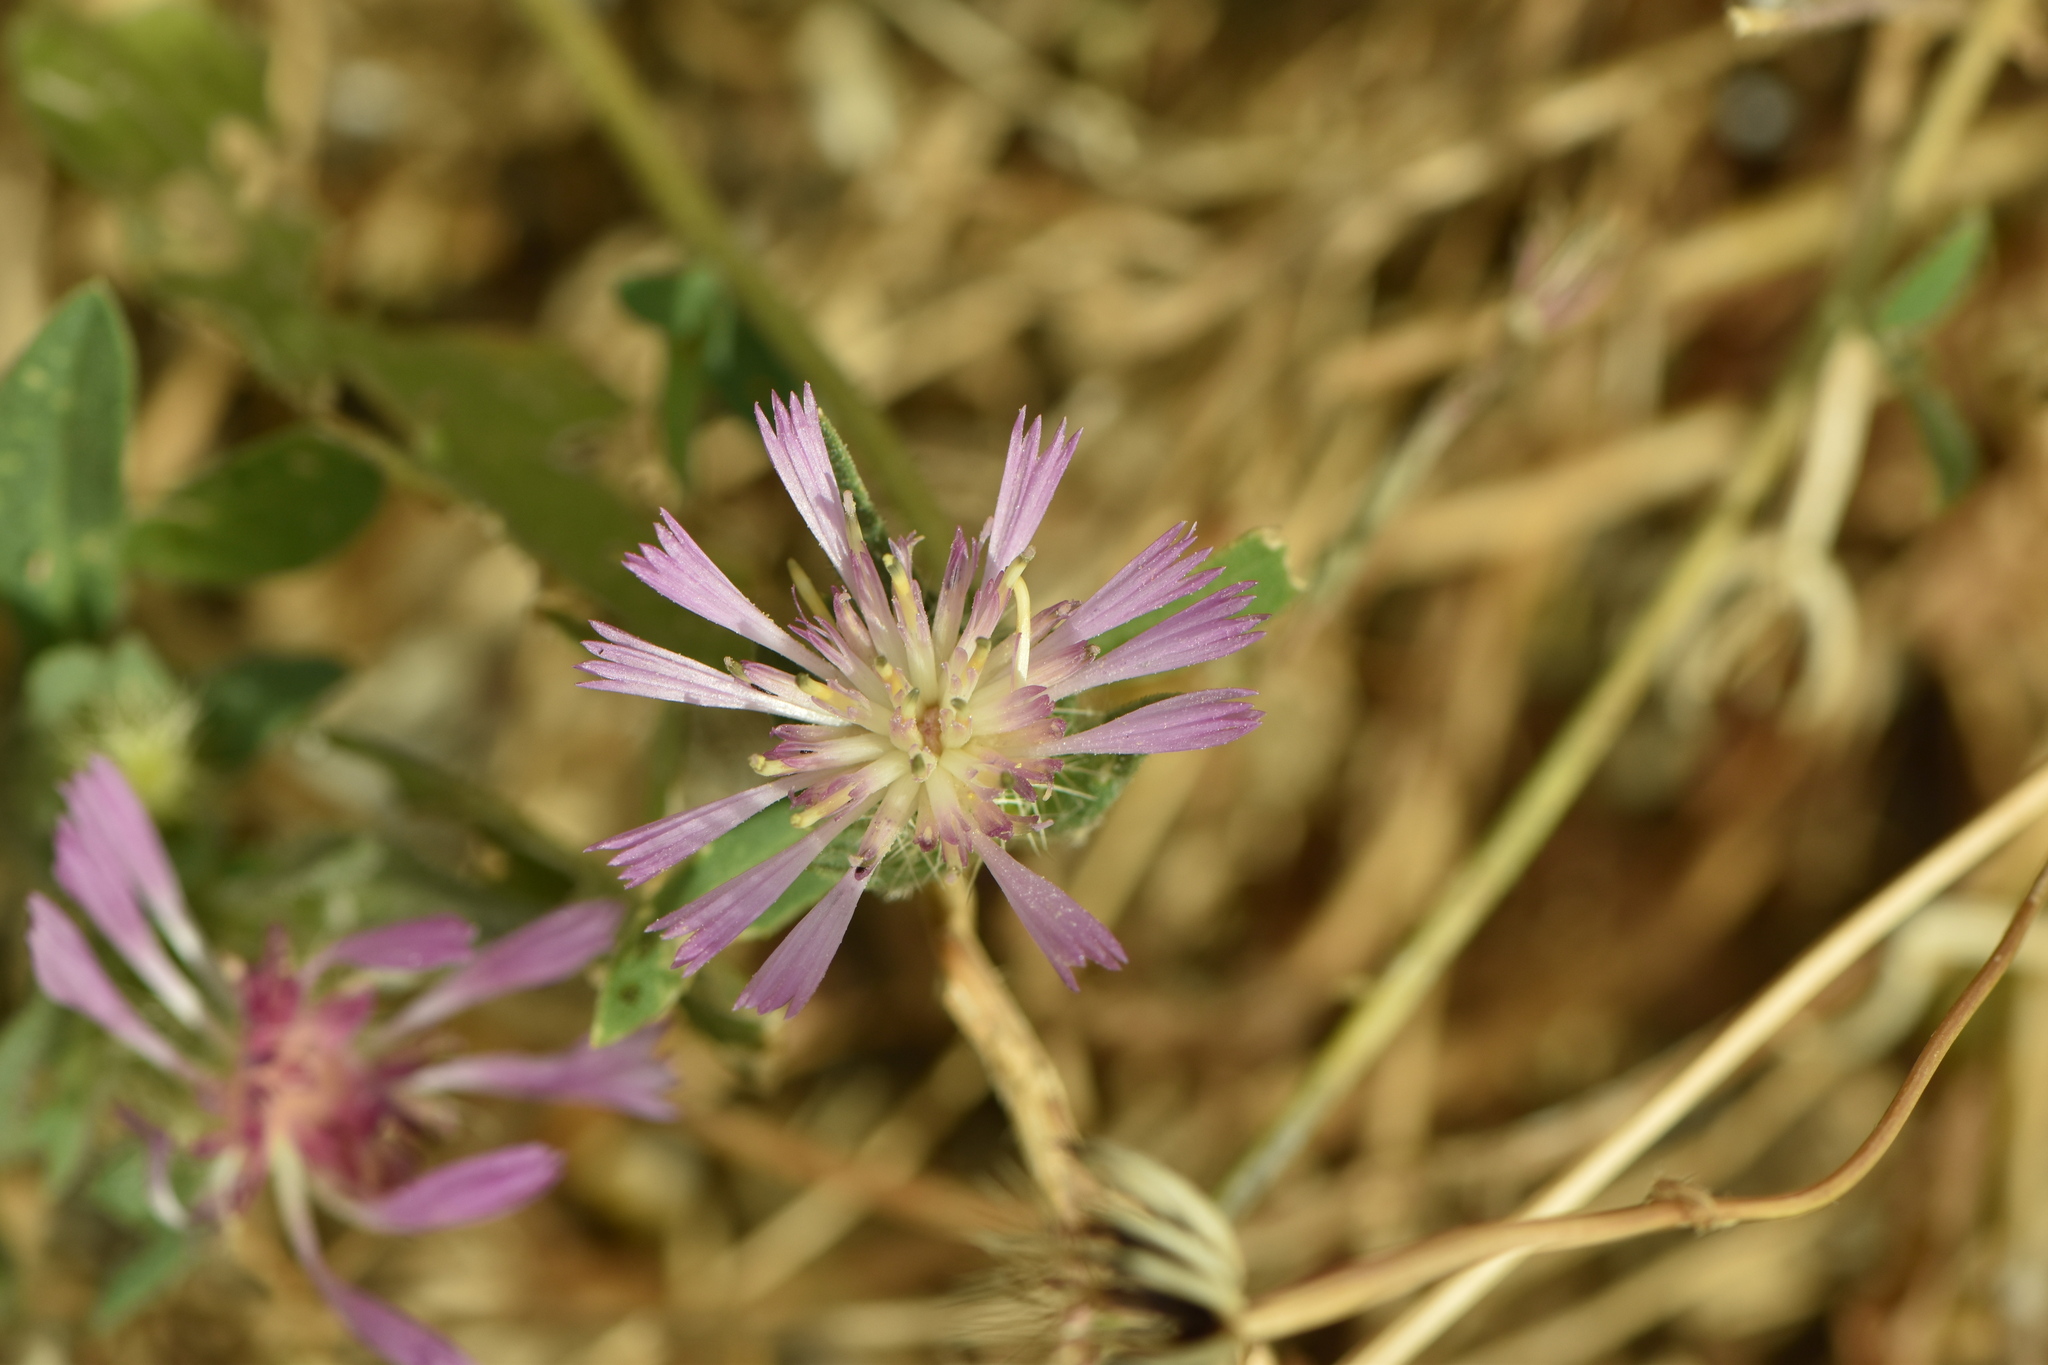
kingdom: Plantae
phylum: Tracheophyta
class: Magnoliopsida
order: Asterales
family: Asteraceae
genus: Centaurea
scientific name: Centaurea pullata
